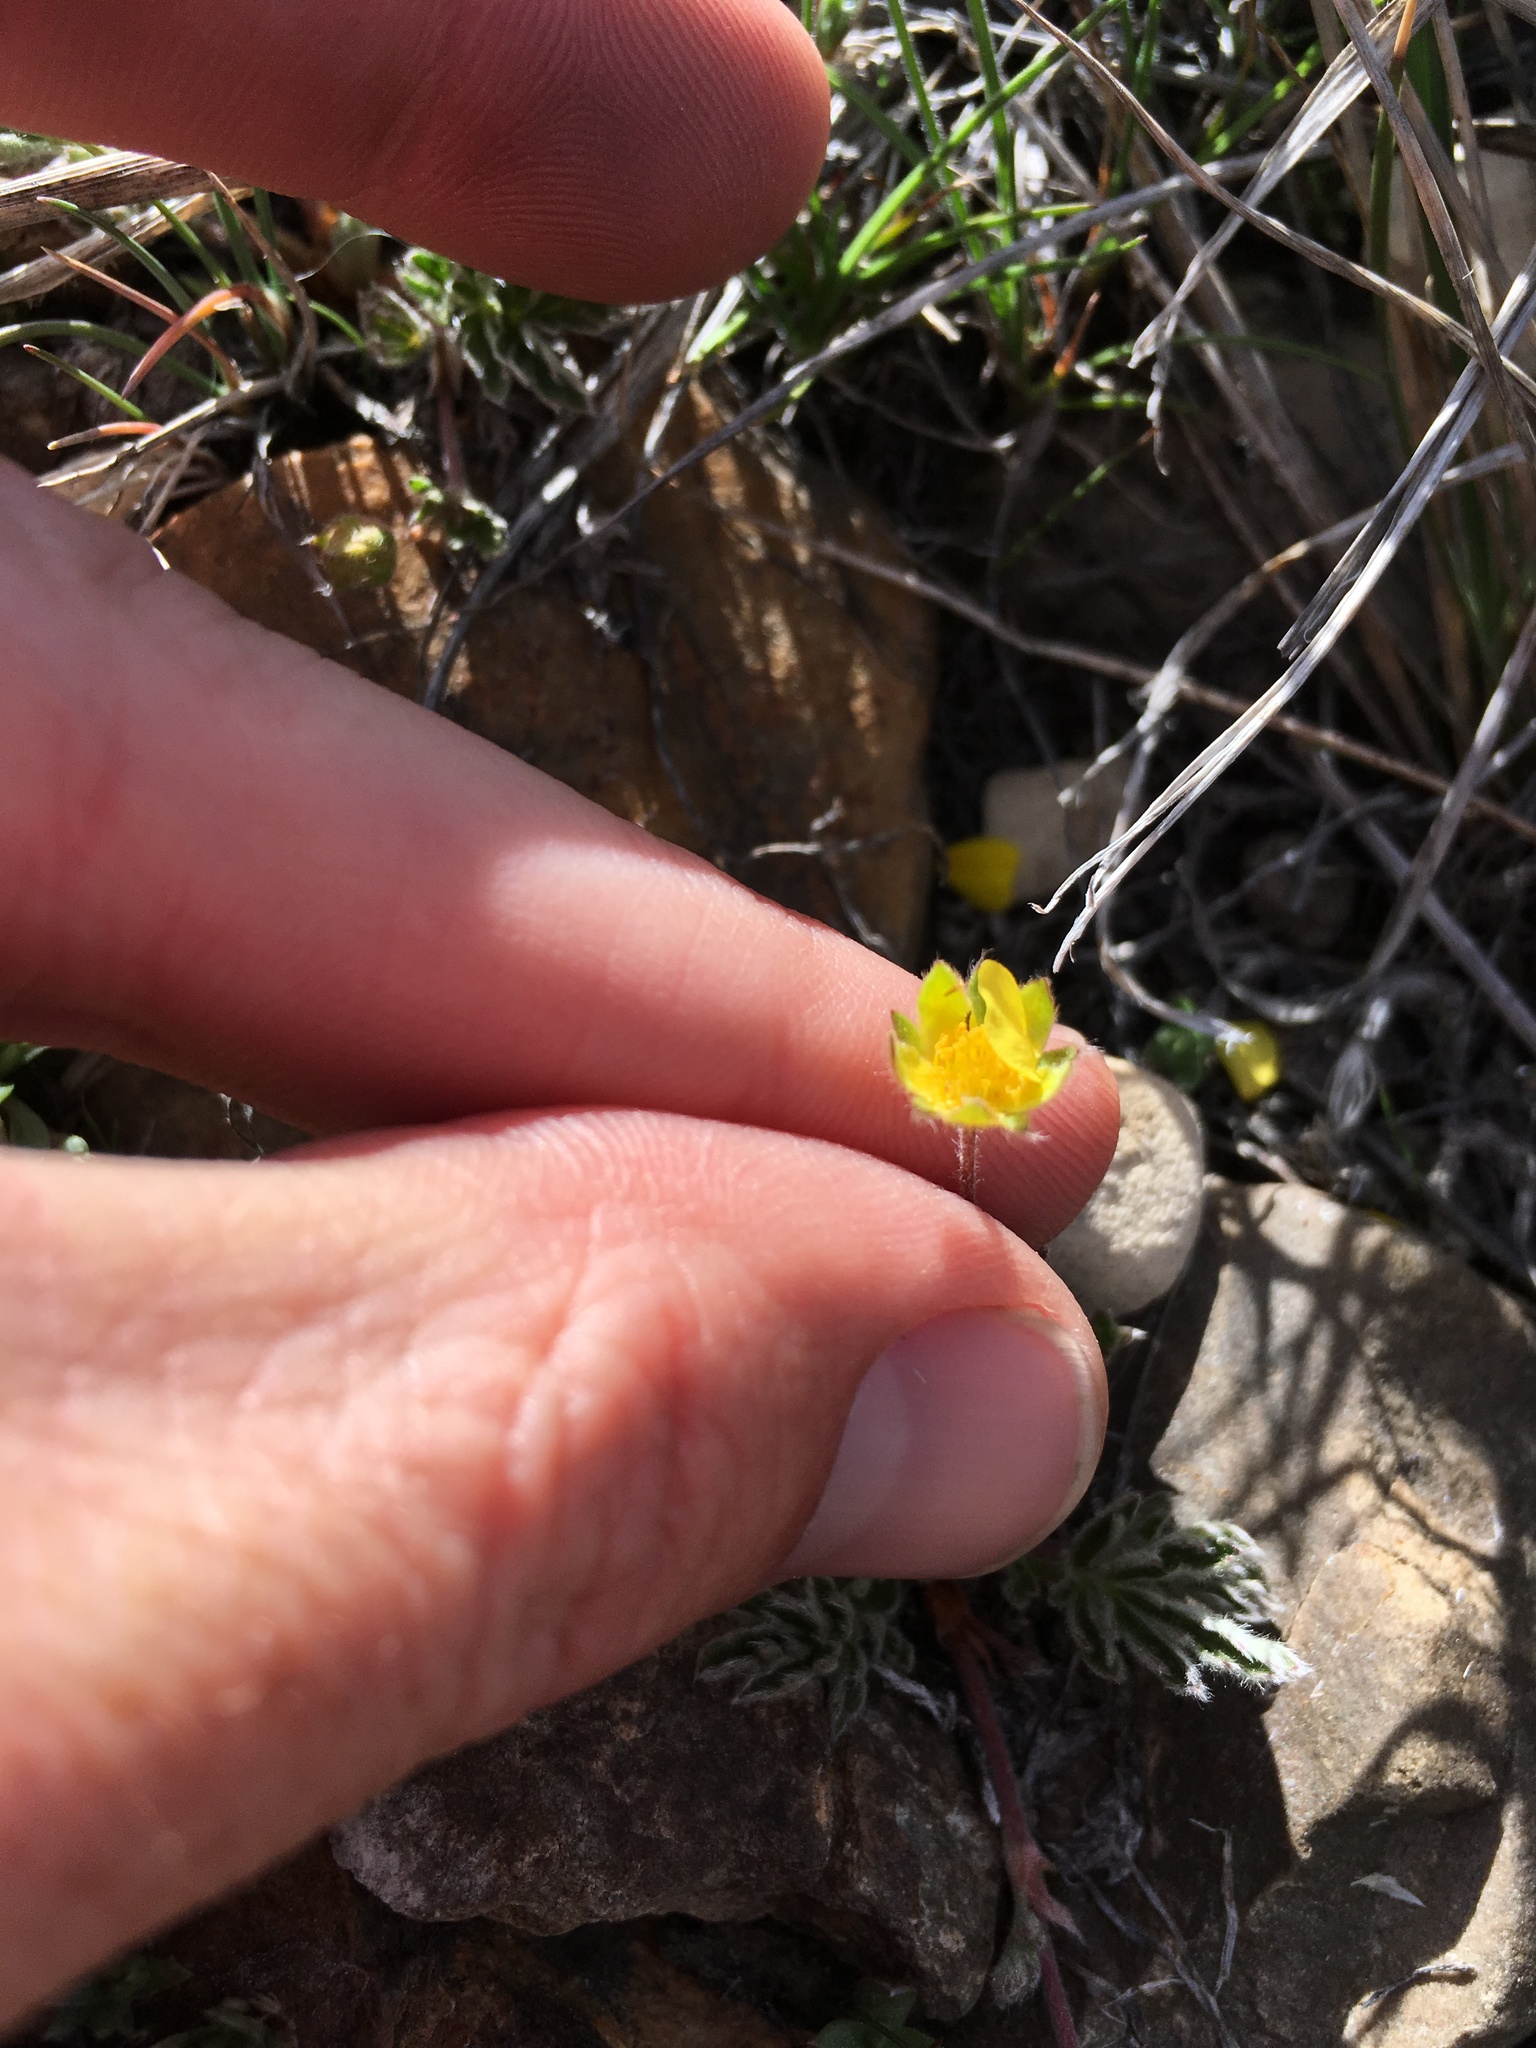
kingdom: Plantae
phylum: Tracheophyta
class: Magnoliopsida
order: Rosales
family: Rosaceae
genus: Potentilla
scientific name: Potentilla morefieldii
